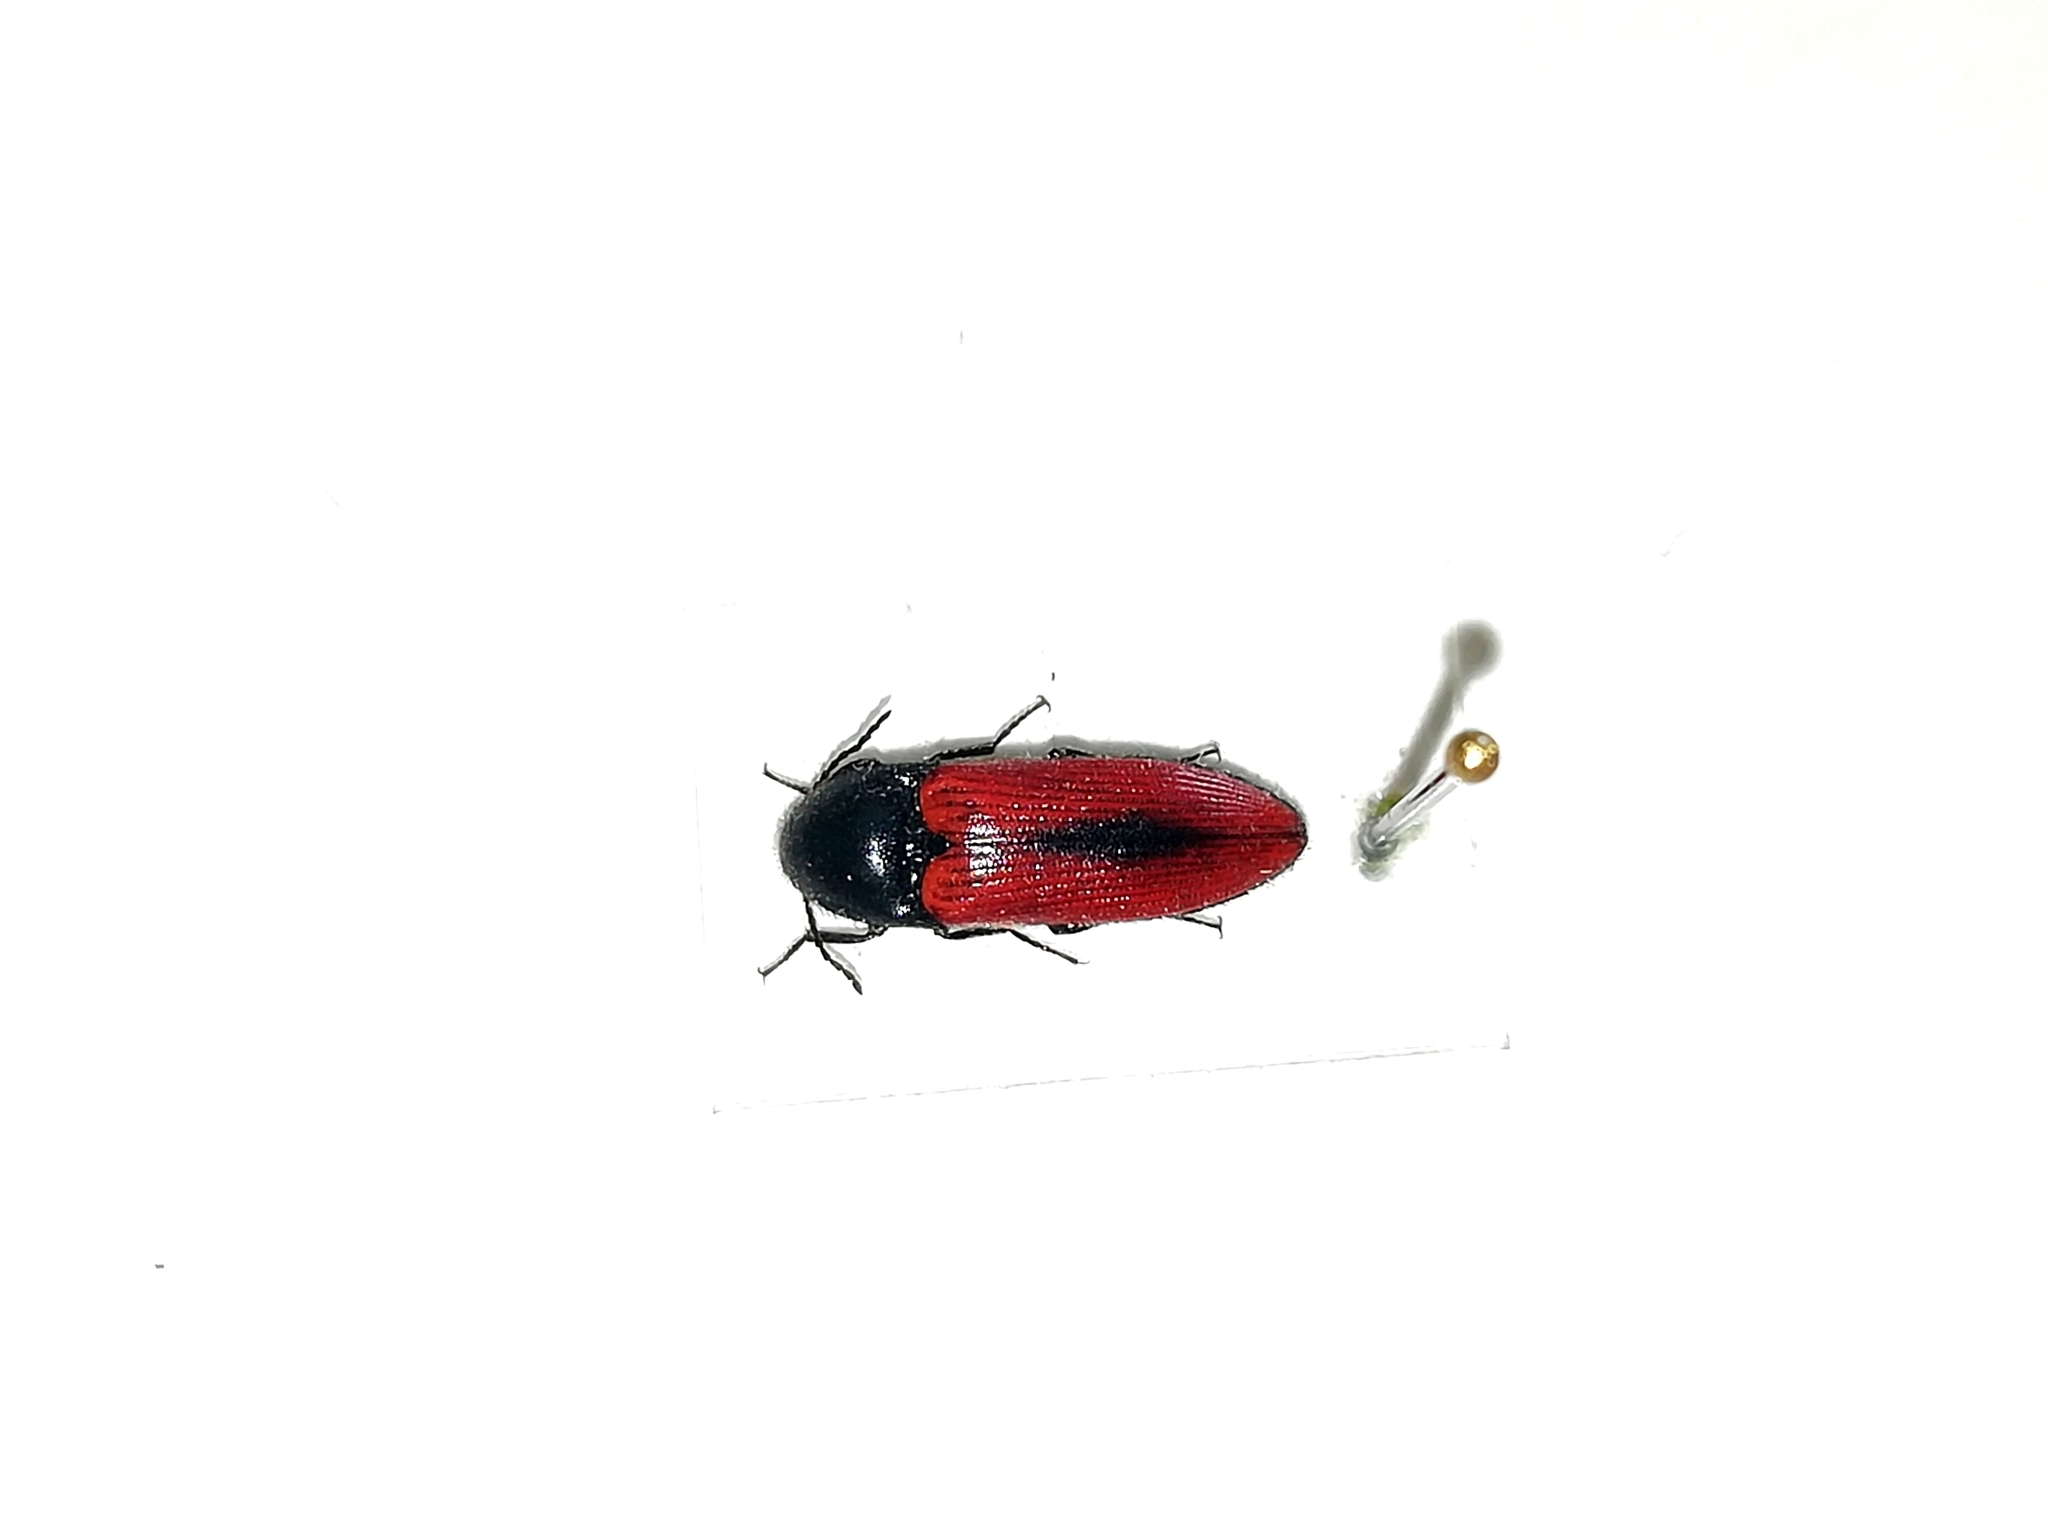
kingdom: Animalia
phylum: Arthropoda
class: Insecta
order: Coleoptera
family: Elateridae
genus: Ampedus
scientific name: Ampedus sanguinolentus
